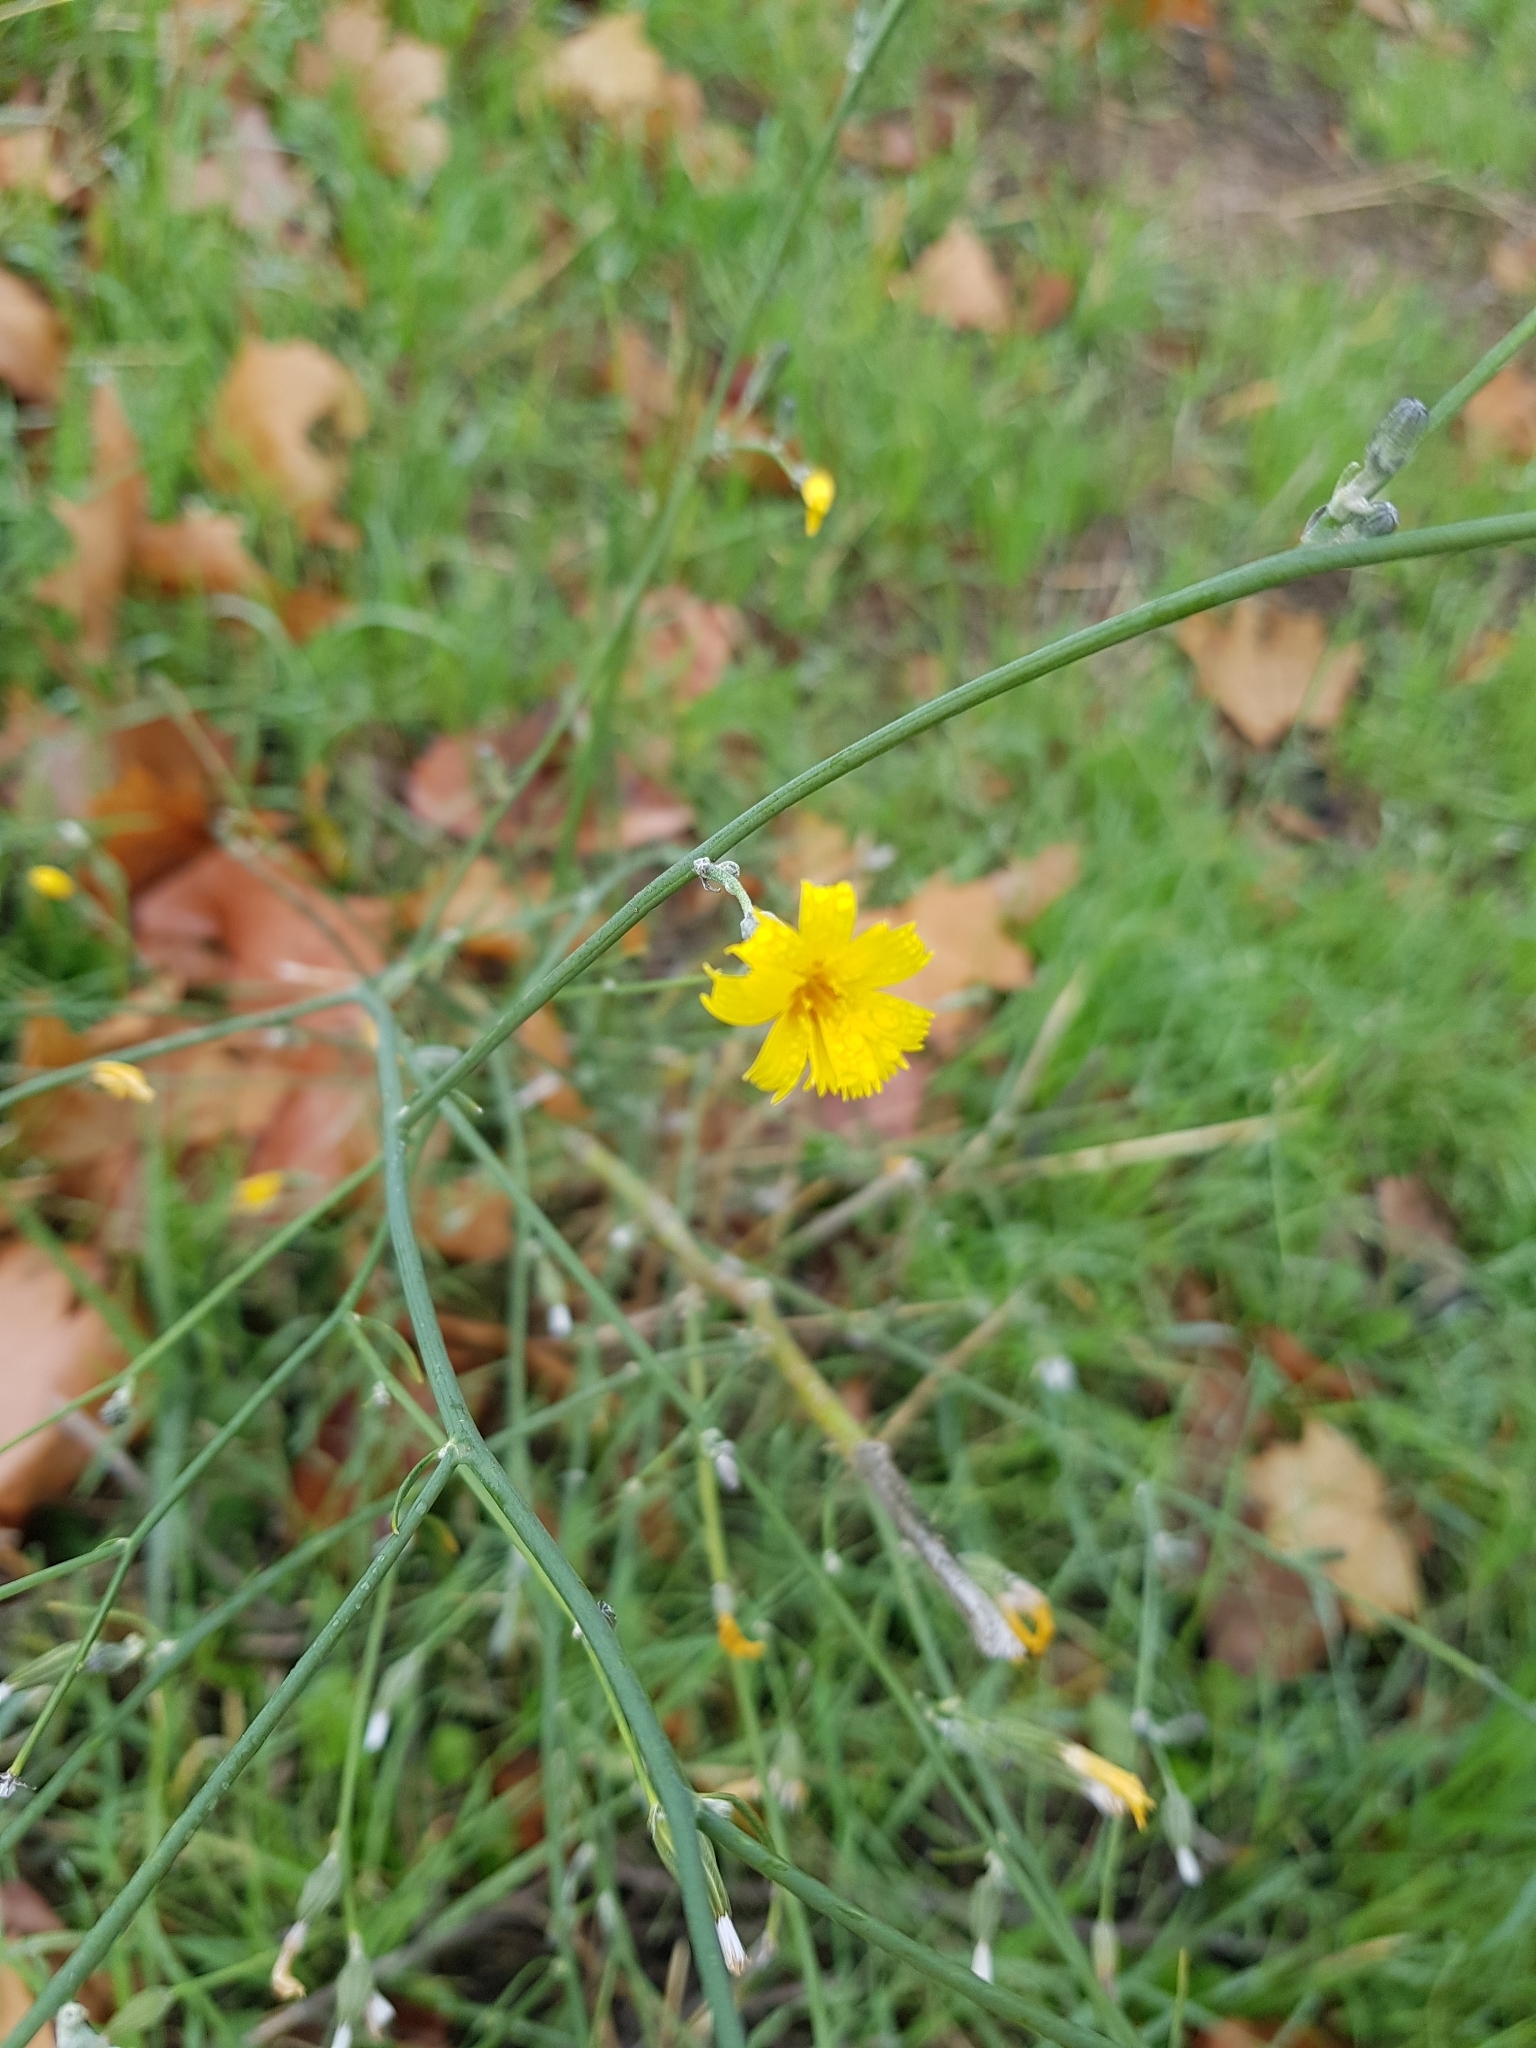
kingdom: Plantae
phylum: Tracheophyta
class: Magnoliopsida
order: Asterales
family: Asteraceae
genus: Chondrilla
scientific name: Chondrilla juncea
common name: Skeleton weed
